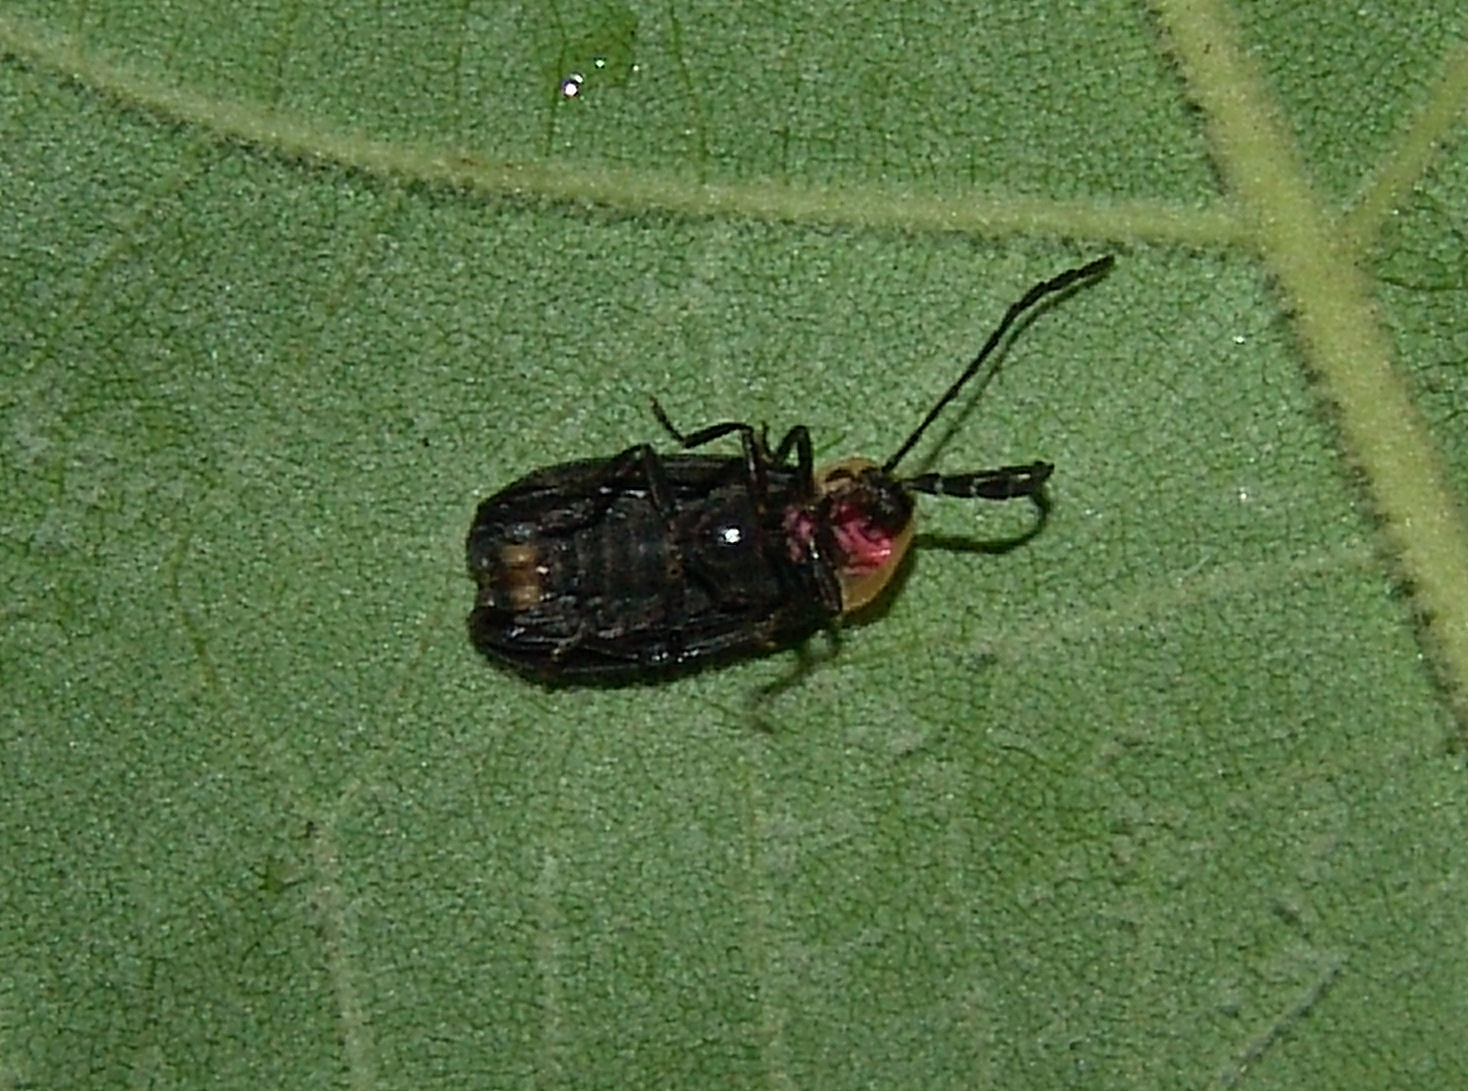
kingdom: Animalia
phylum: Arthropoda
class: Insecta
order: Coleoptera
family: Lampyridae
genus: Lucidota
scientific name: Lucidota atra
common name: Black firefly
